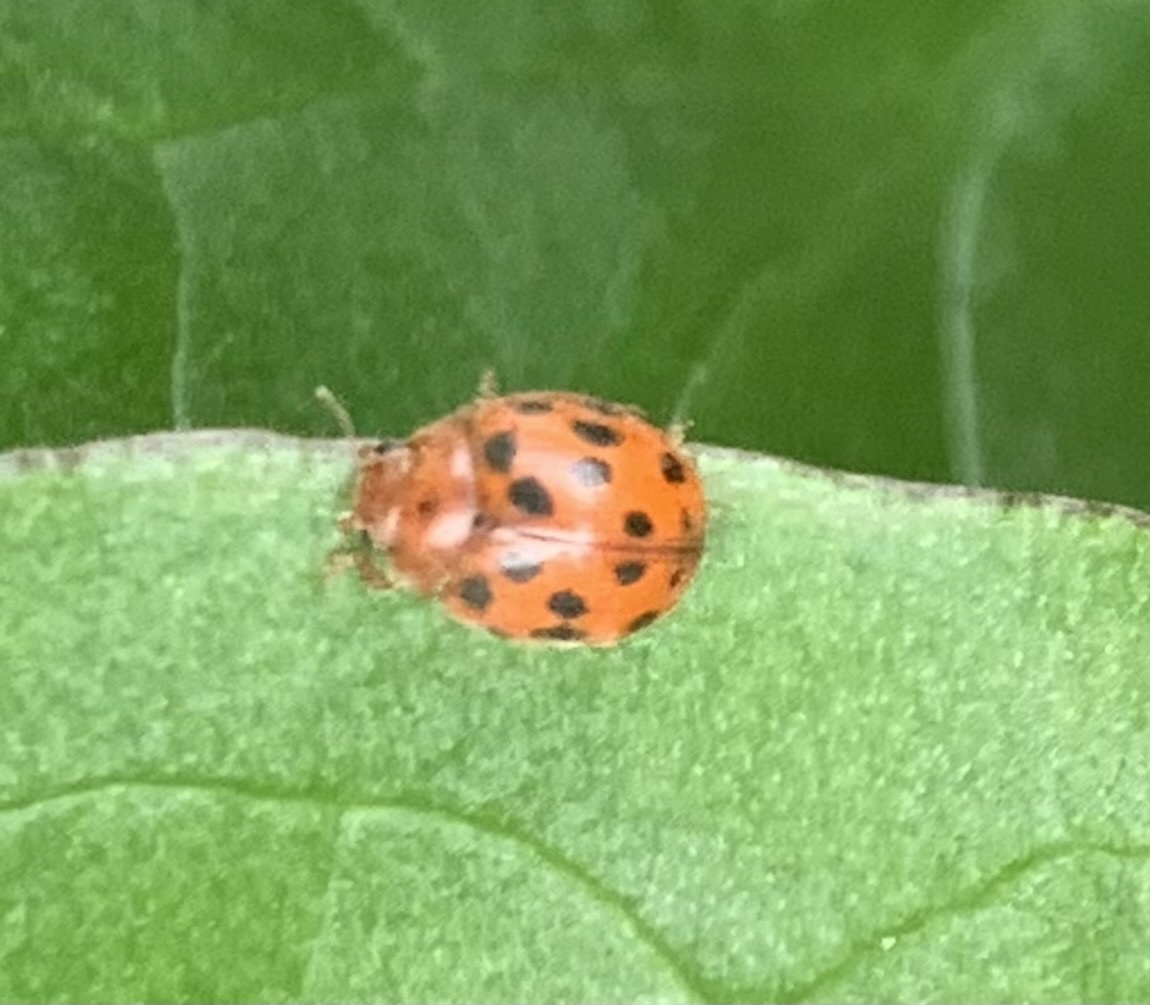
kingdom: Animalia
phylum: Arthropoda
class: Insecta
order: Coleoptera
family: Coccinellidae
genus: Subcoccinella
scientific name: Subcoccinella vigintiquatuorpunctata
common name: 24-spot ladybird
